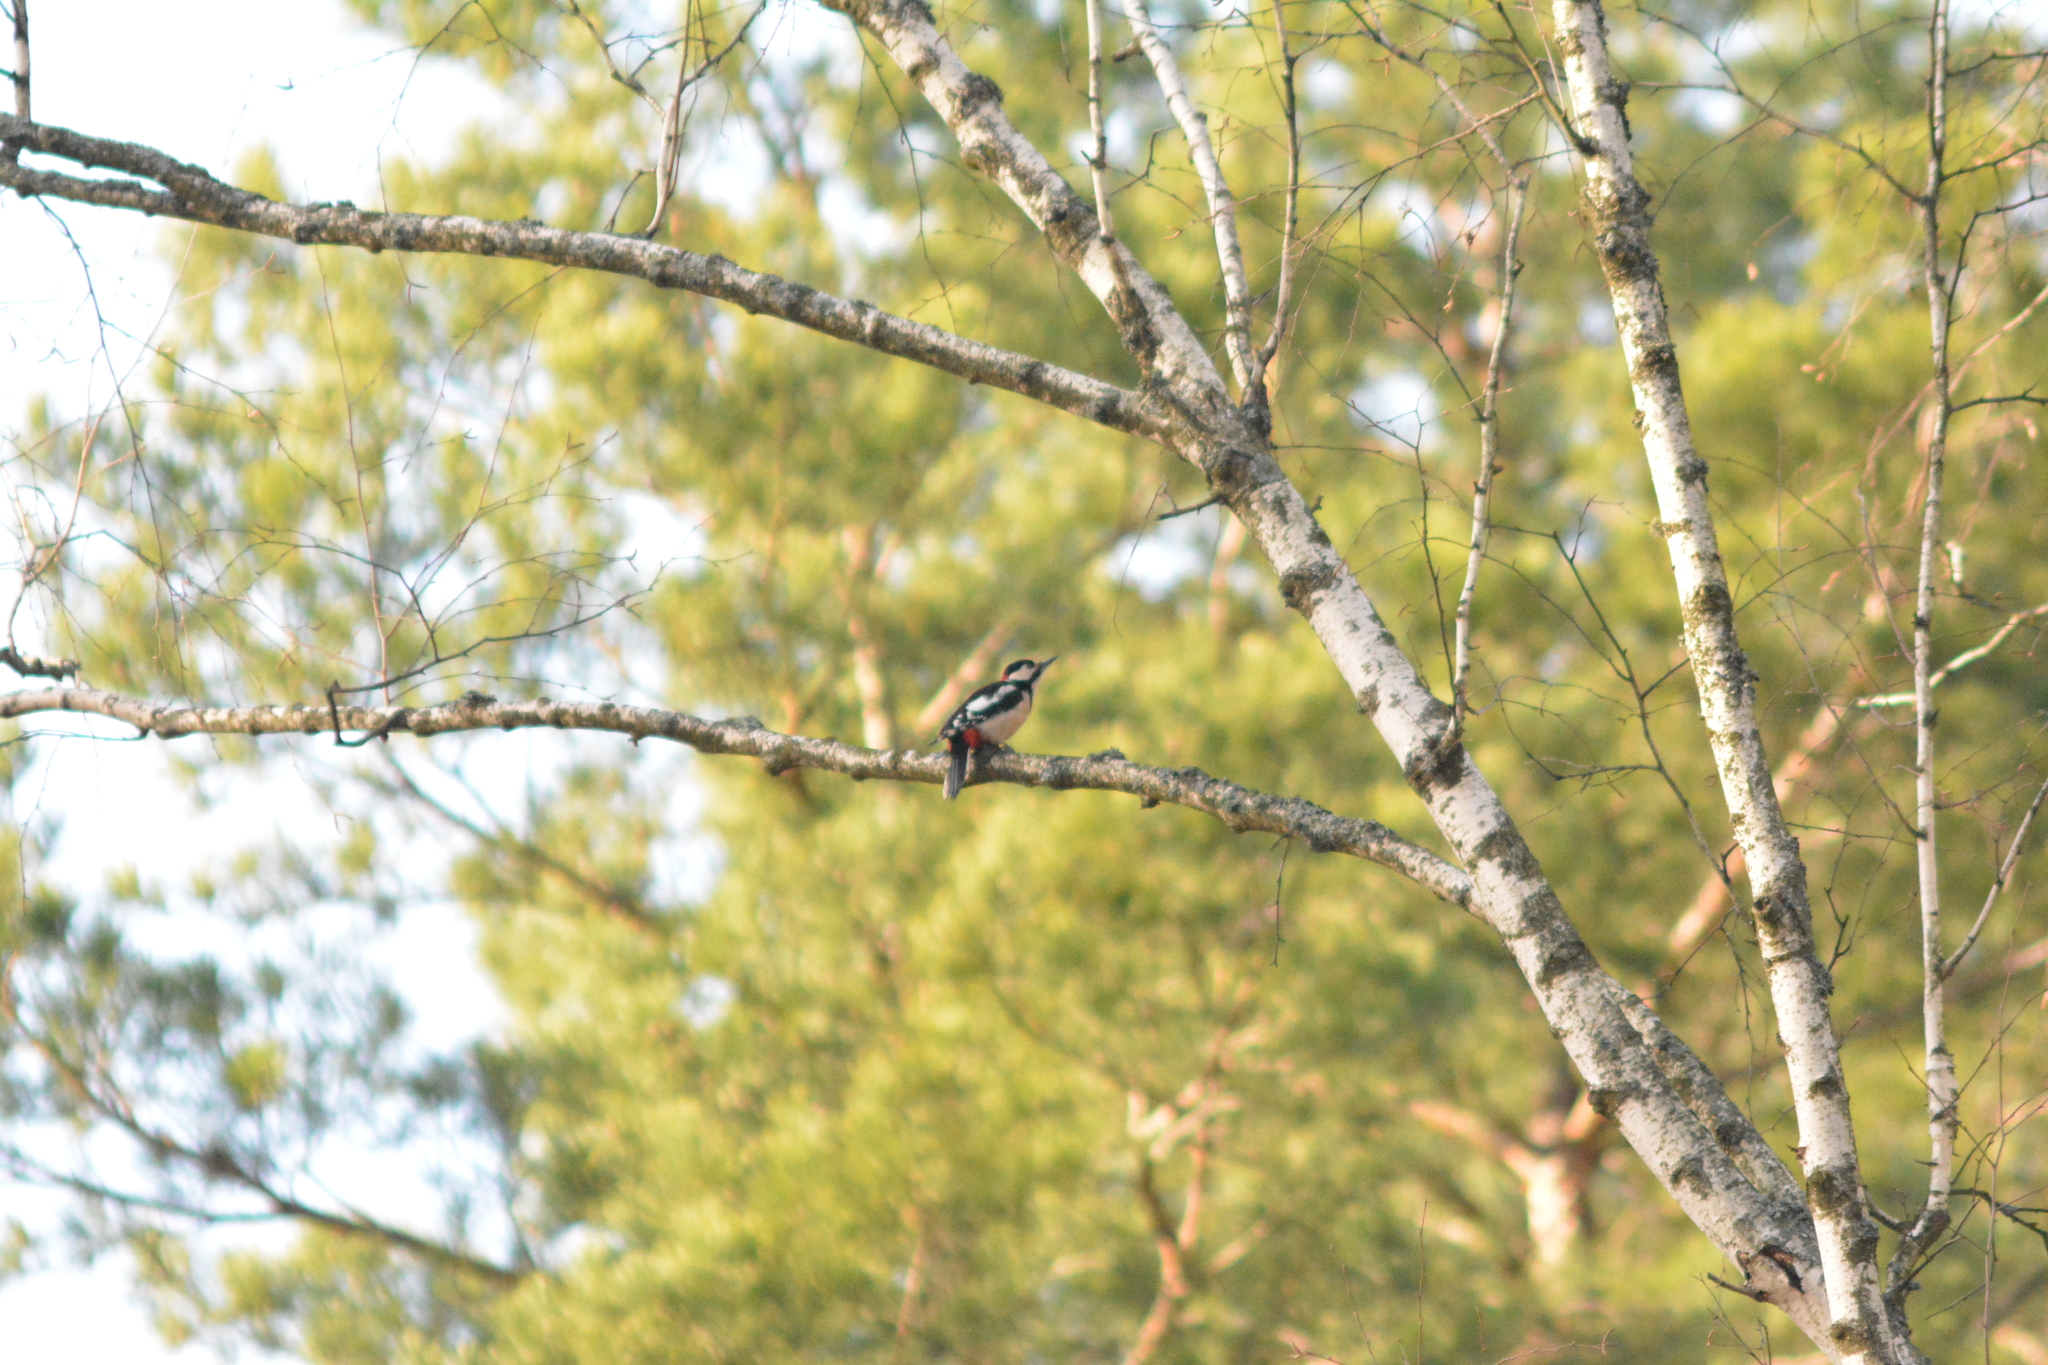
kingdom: Animalia
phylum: Chordata
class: Aves
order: Piciformes
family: Picidae
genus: Dendrocopos
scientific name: Dendrocopos major
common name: Great spotted woodpecker
